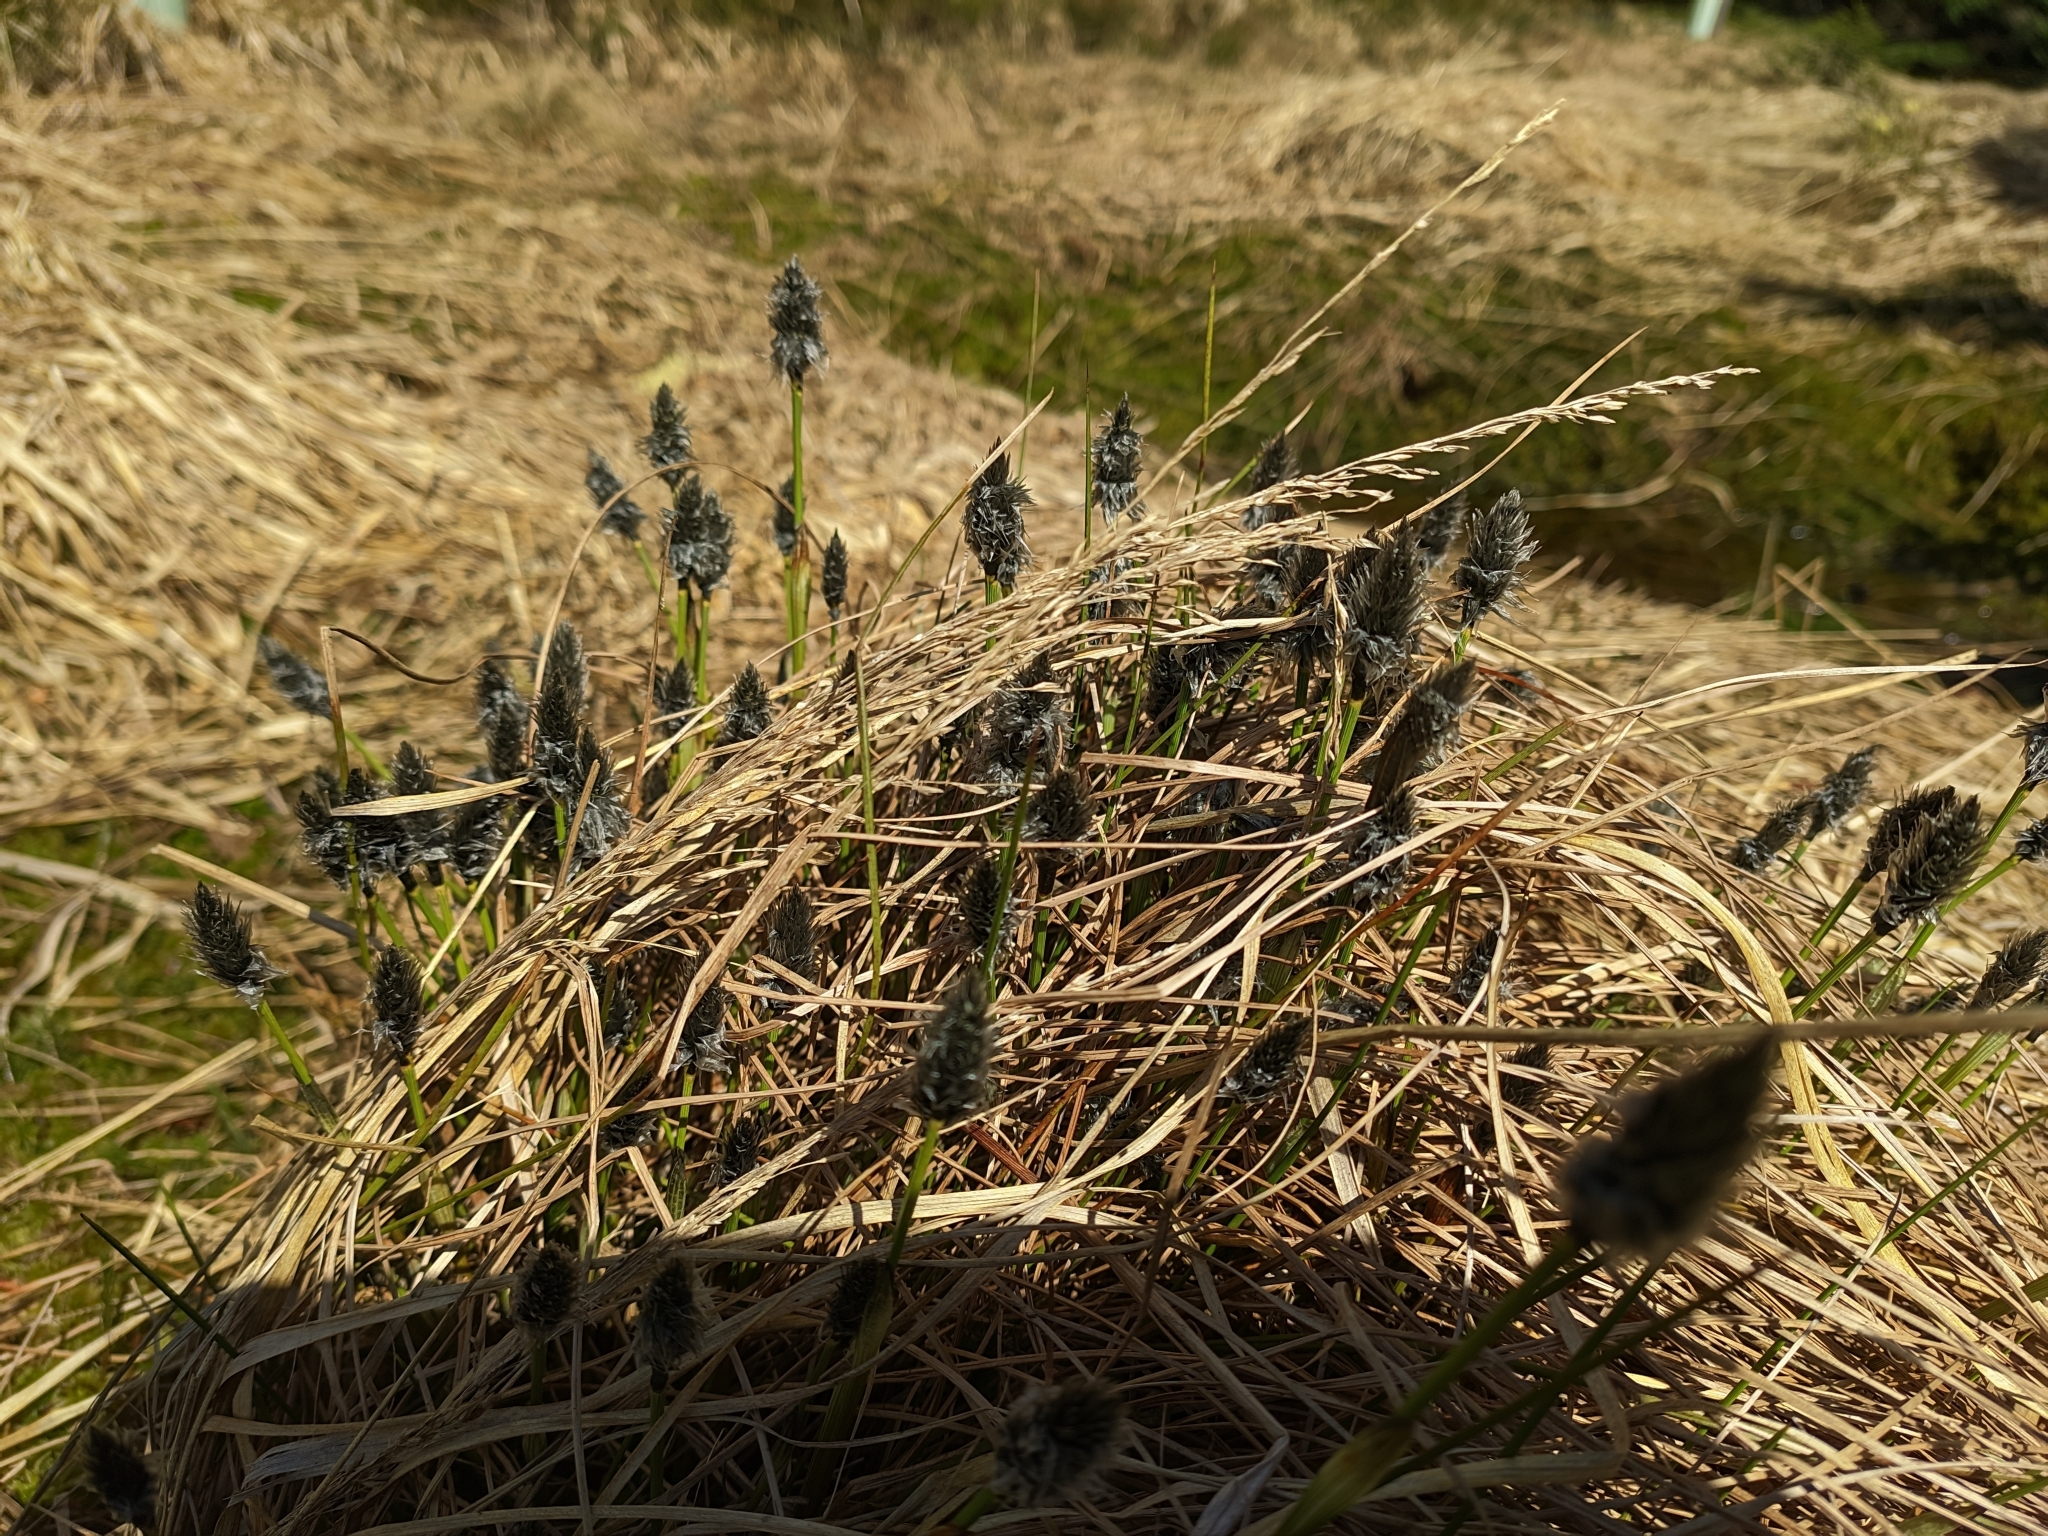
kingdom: Plantae
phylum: Tracheophyta
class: Liliopsida
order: Poales
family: Cyperaceae
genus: Eriophorum
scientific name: Eriophorum vaginatum
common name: Hare's-tail cottongrass
